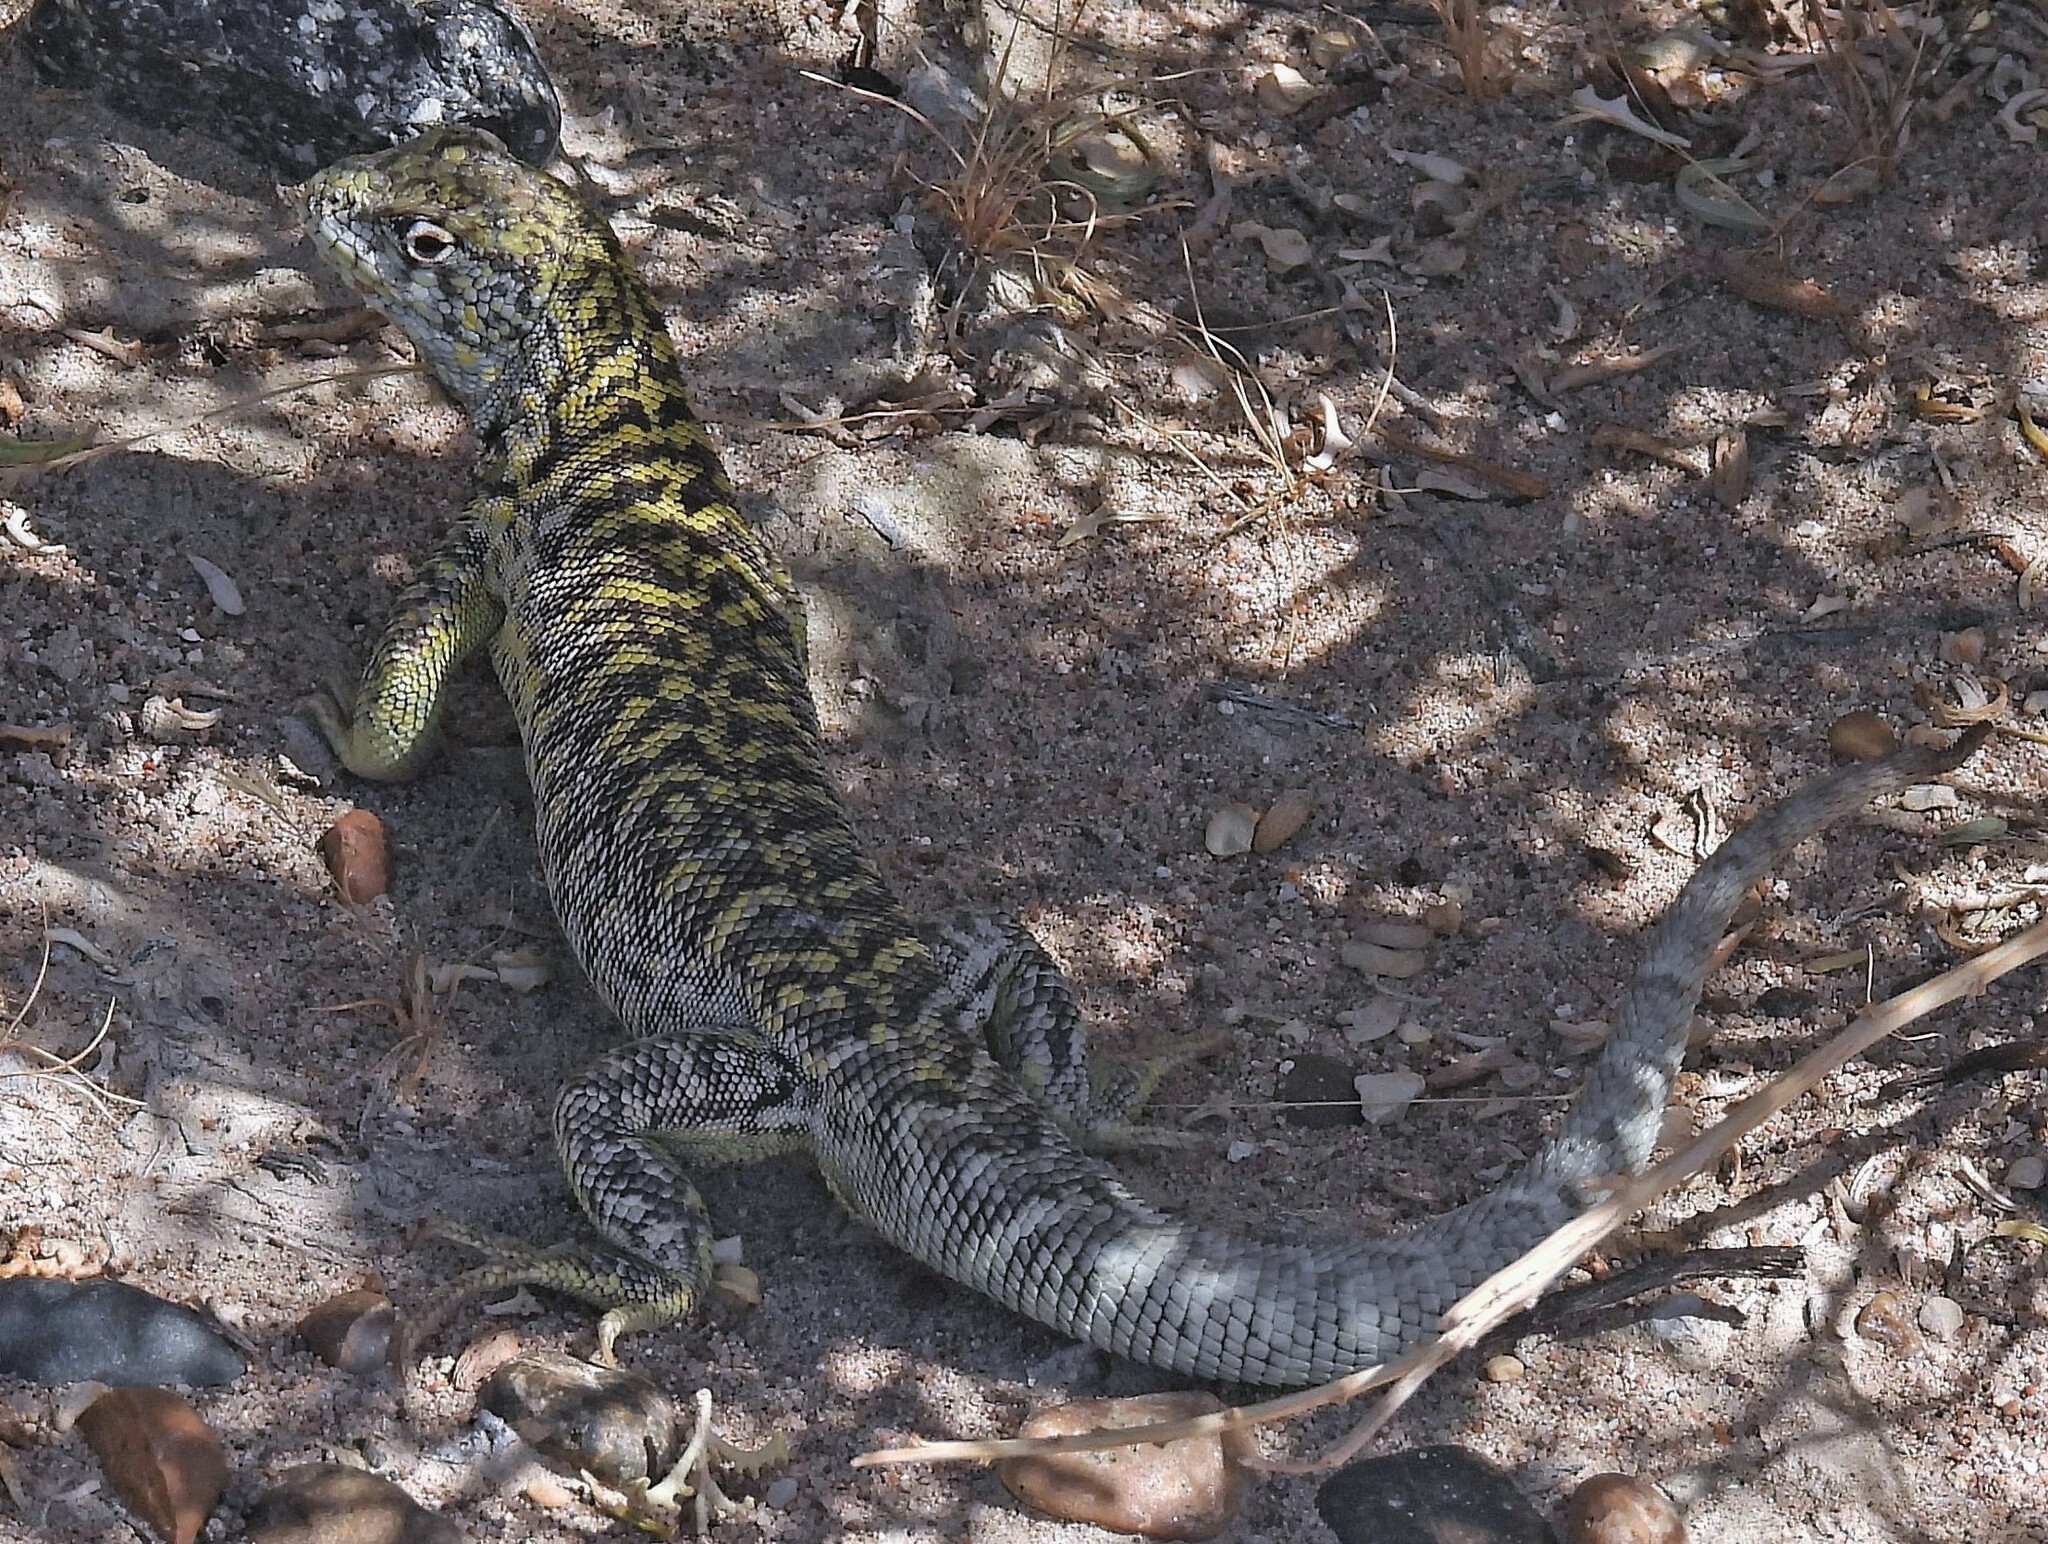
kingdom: Animalia
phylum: Chordata
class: Squamata
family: Liolaemidae
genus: Liolaemus
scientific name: Liolaemus melanops
